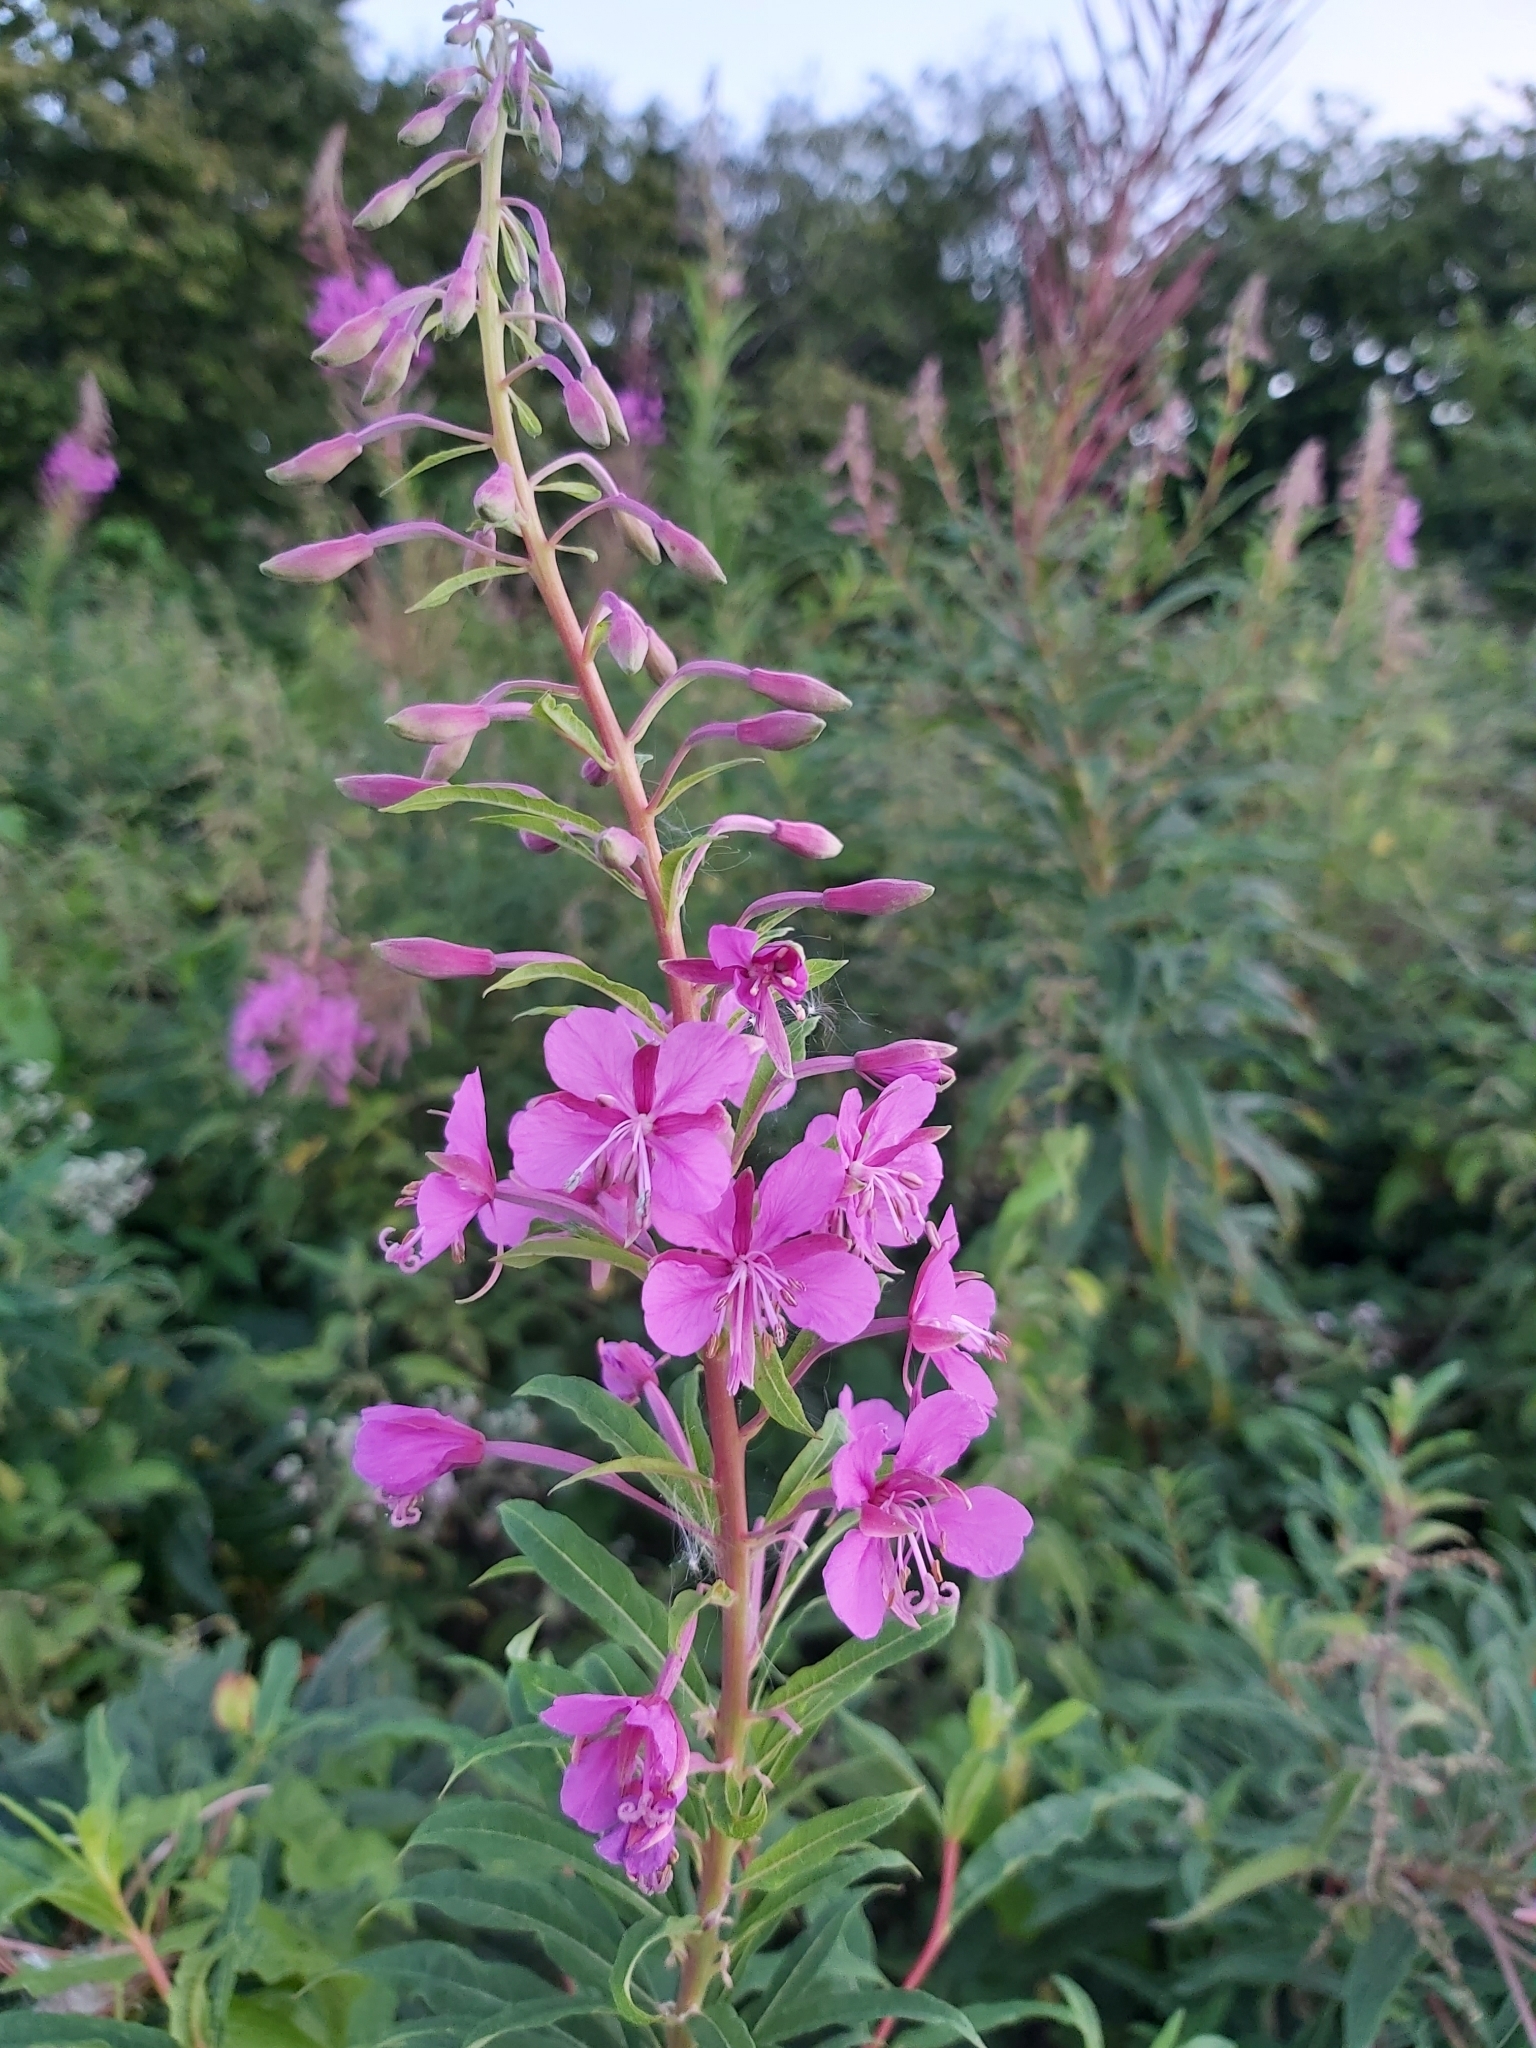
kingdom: Plantae
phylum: Tracheophyta
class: Magnoliopsida
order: Myrtales
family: Onagraceae
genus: Chamaenerion
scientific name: Chamaenerion angustifolium
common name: Fireweed
